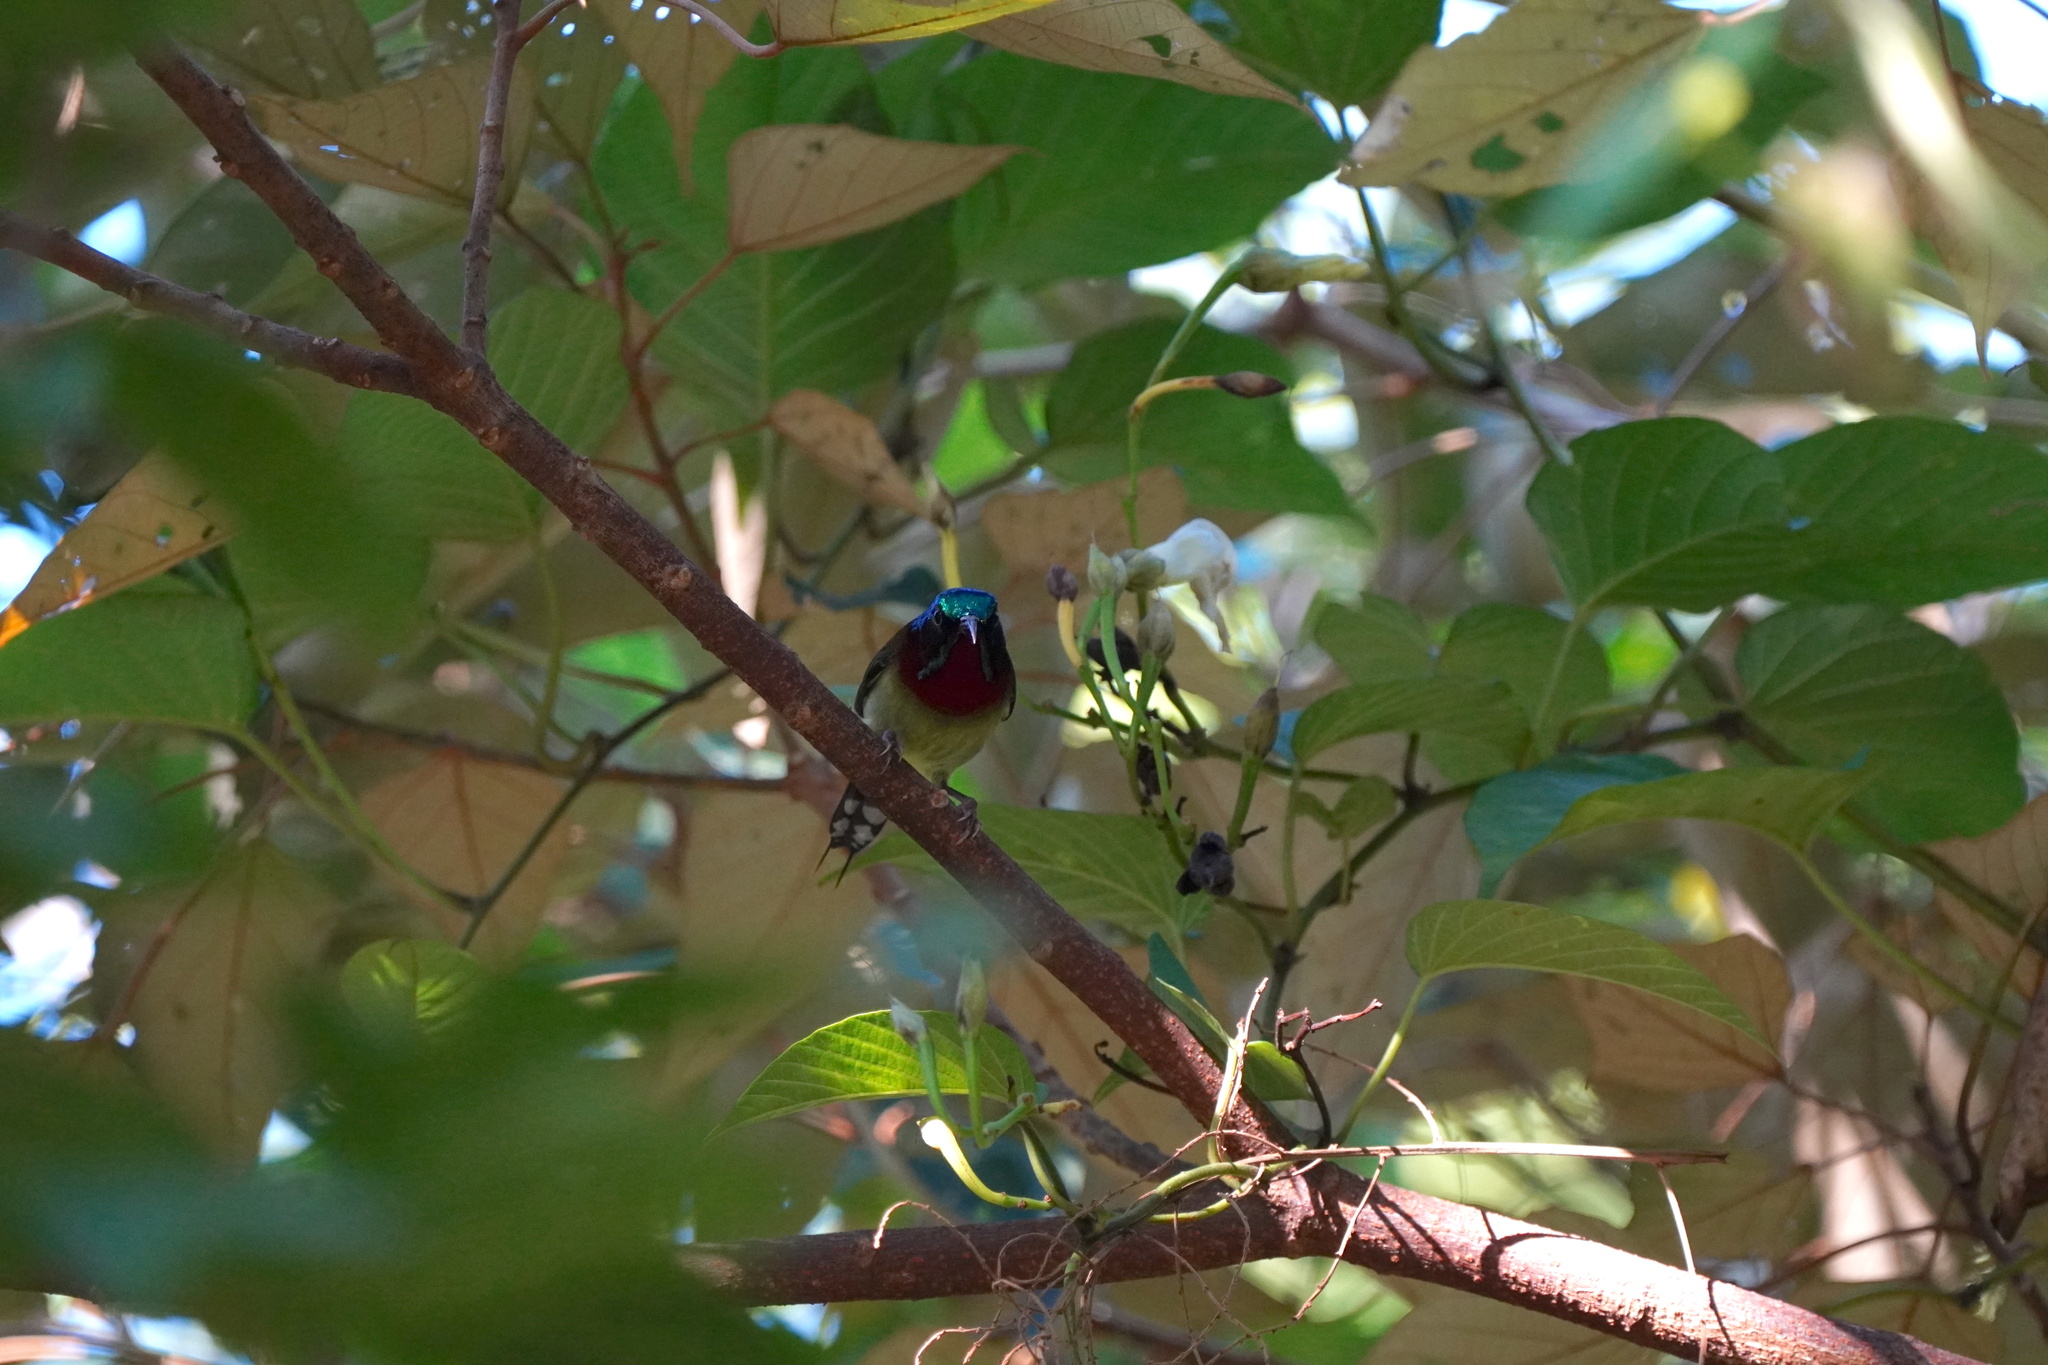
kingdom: Animalia
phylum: Chordata
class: Aves
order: Passeriformes
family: Nectariniidae
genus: Aethopyga
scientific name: Aethopyga christinae
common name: Fork-tailed sunbird
